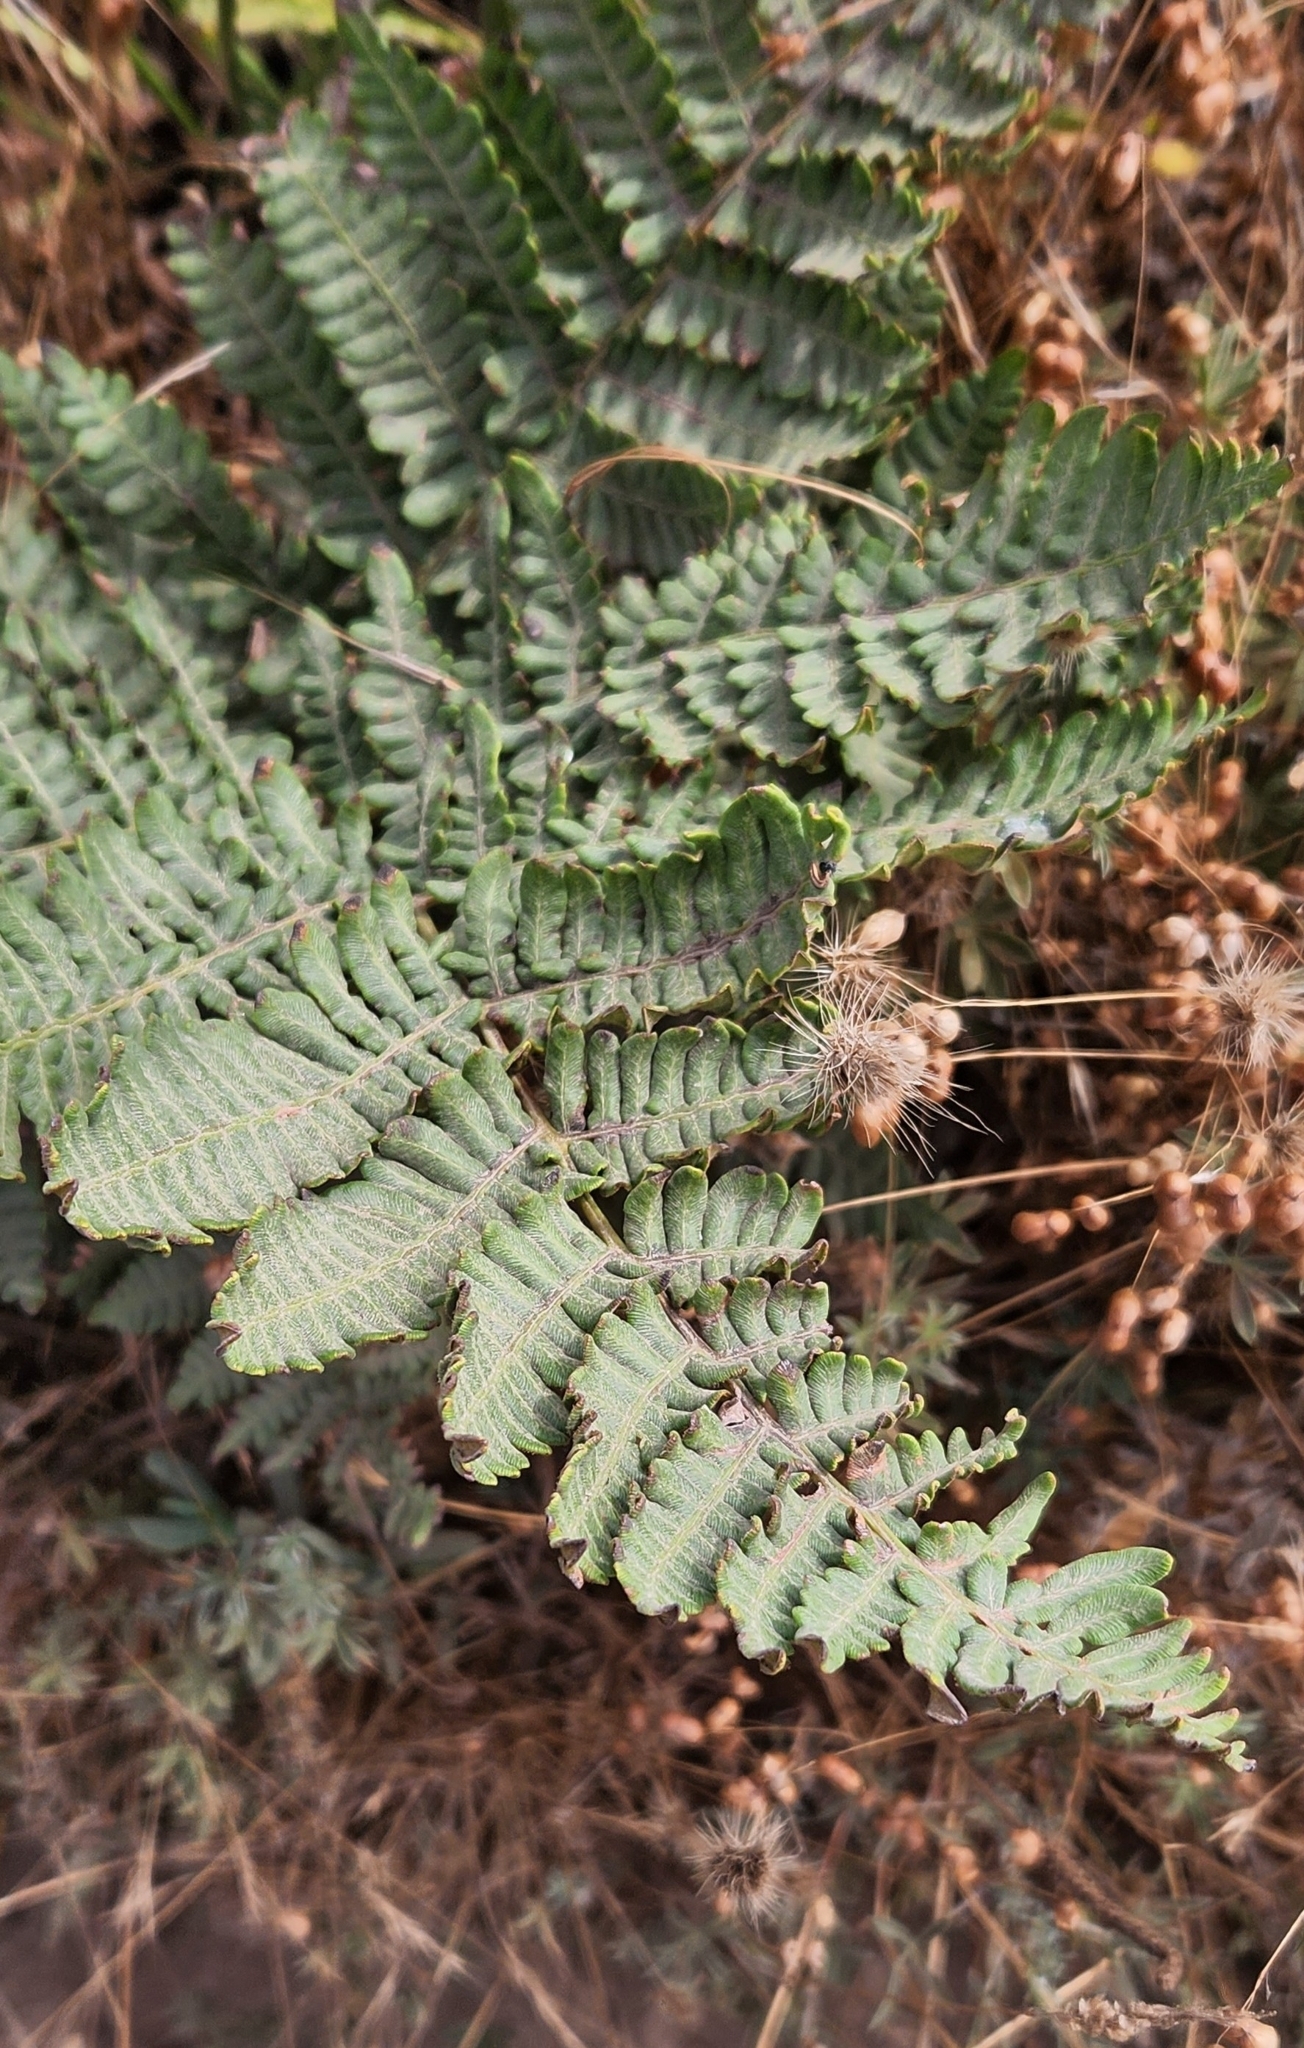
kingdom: Plantae
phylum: Tracheophyta
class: Polypodiopsida
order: Polypodiales
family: Dennstaedtiaceae
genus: Pteridium
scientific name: Pteridium aquilinum
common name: Bracken
